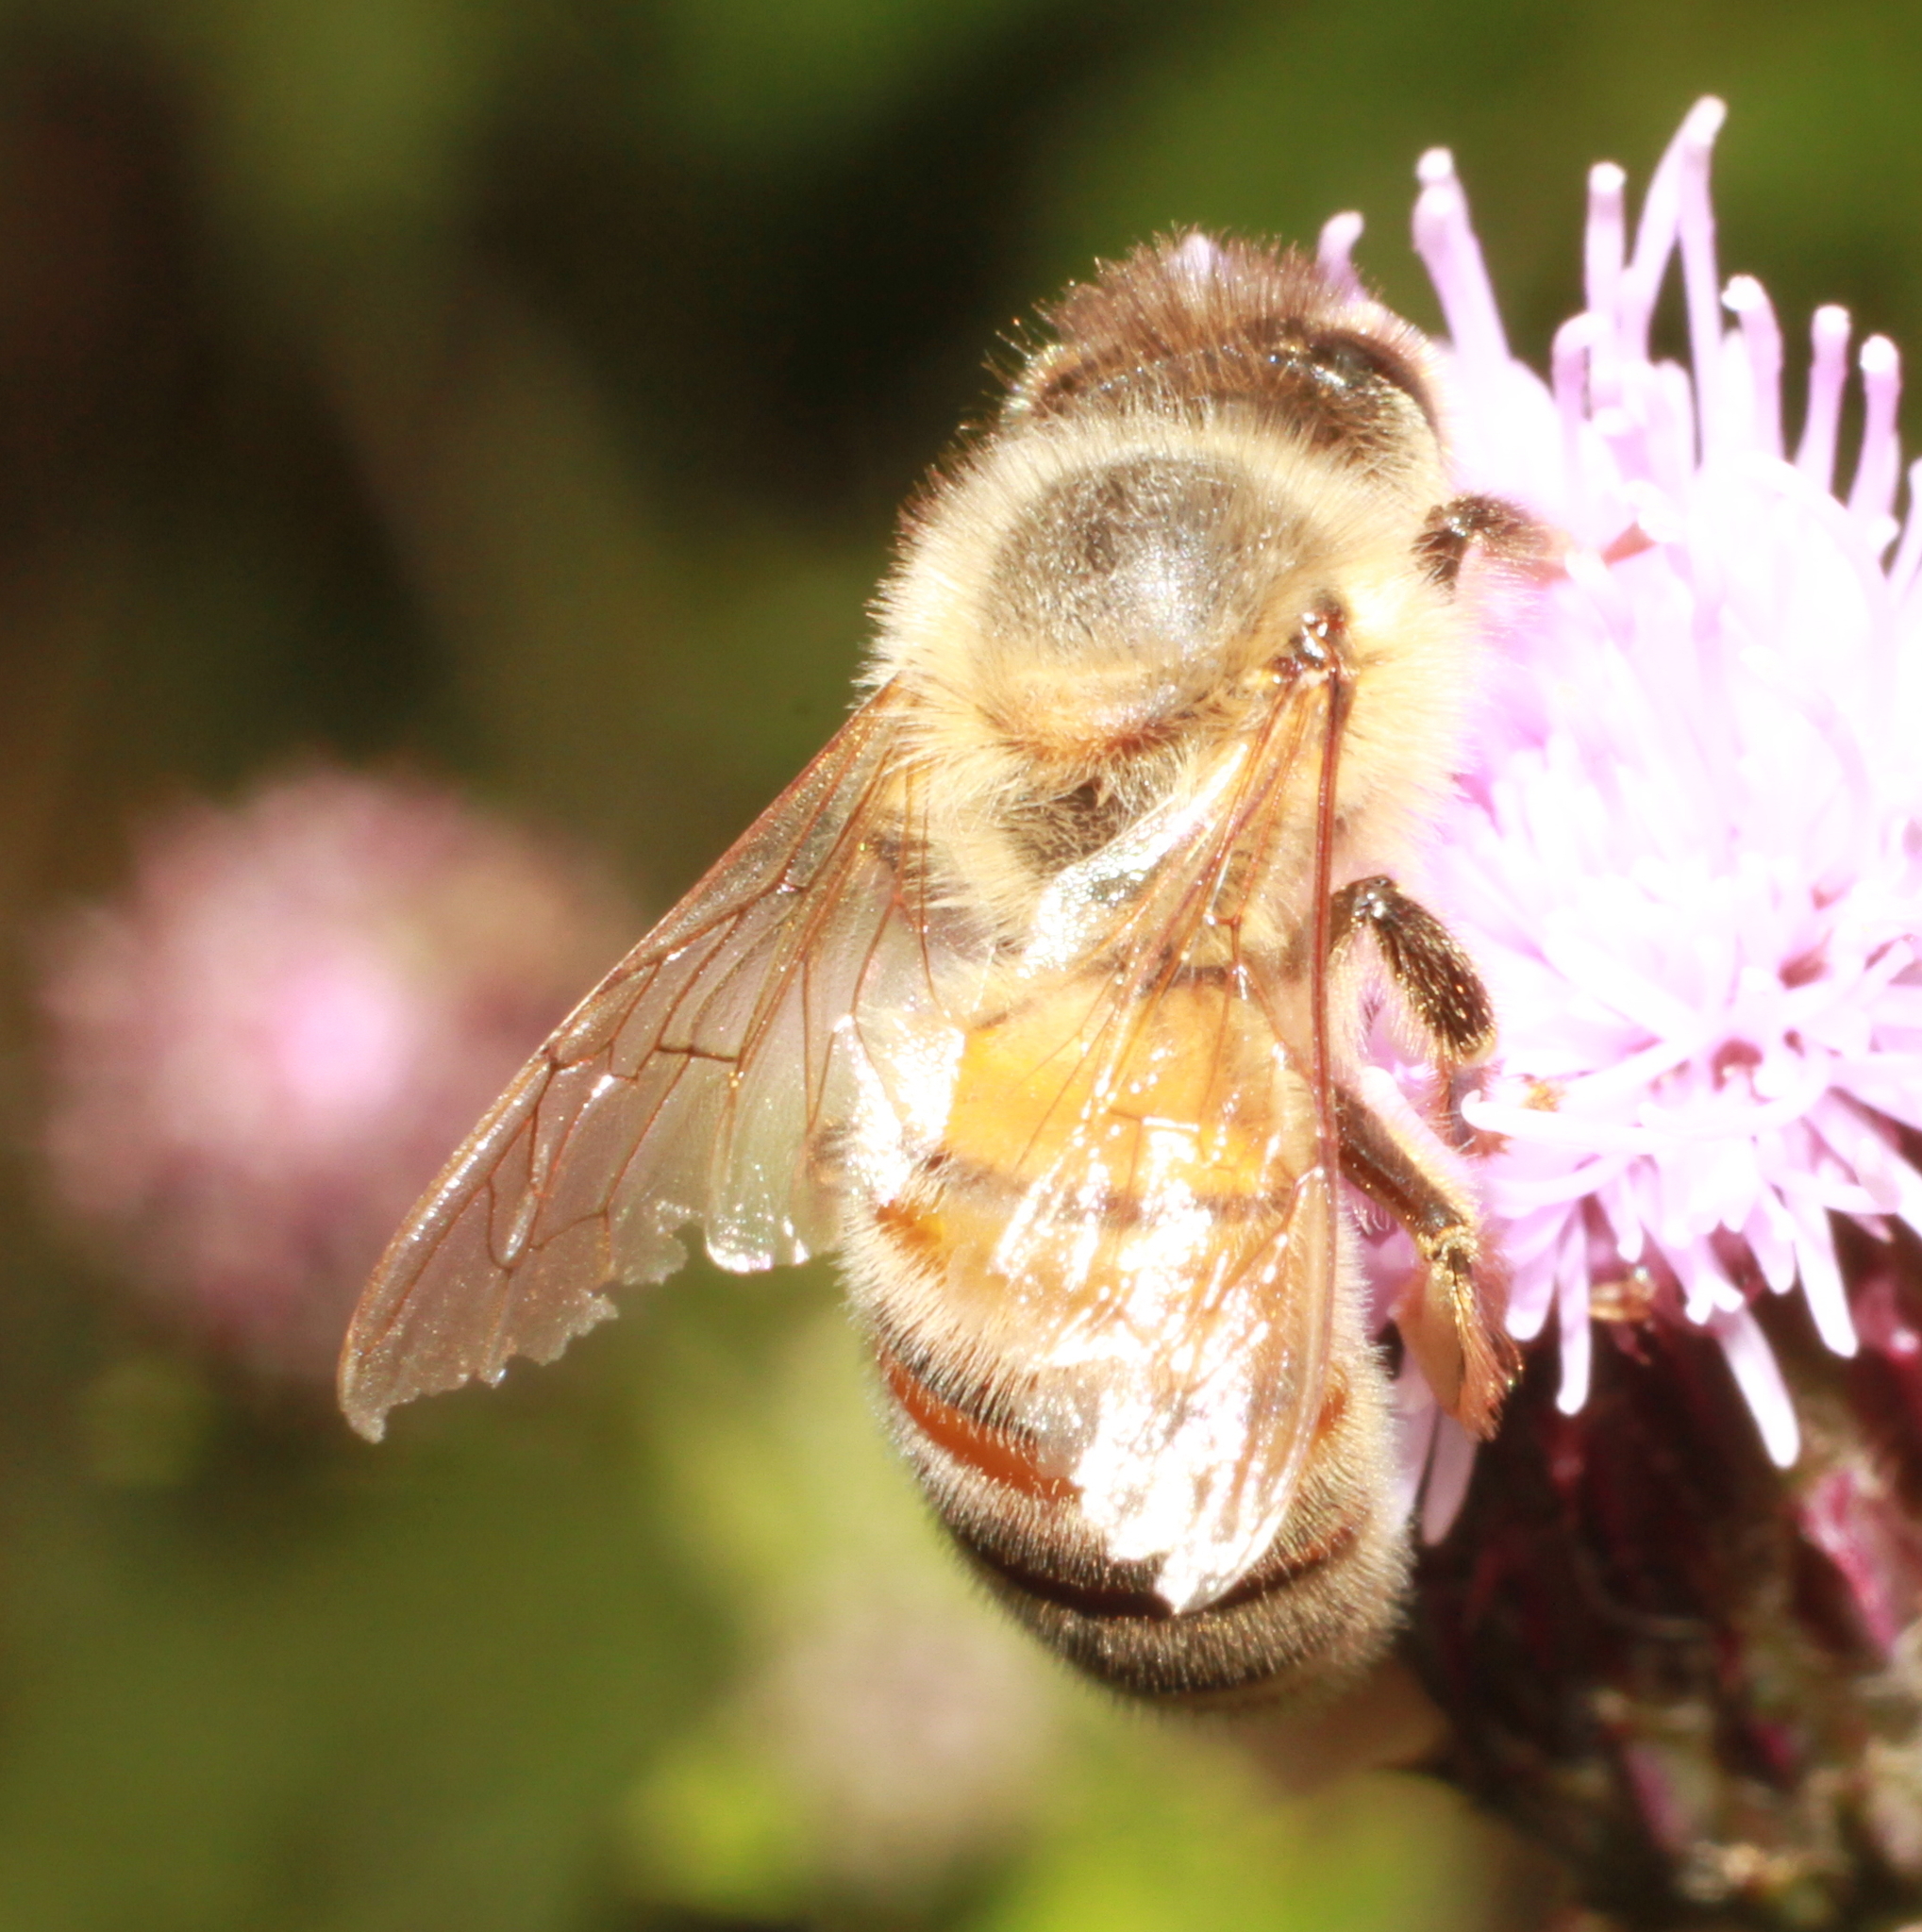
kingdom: Animalia
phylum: Arthropoda
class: Insecta
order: Hymenoptera
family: Apidae
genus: Apis
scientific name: Apis mellifera
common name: Honey bee
